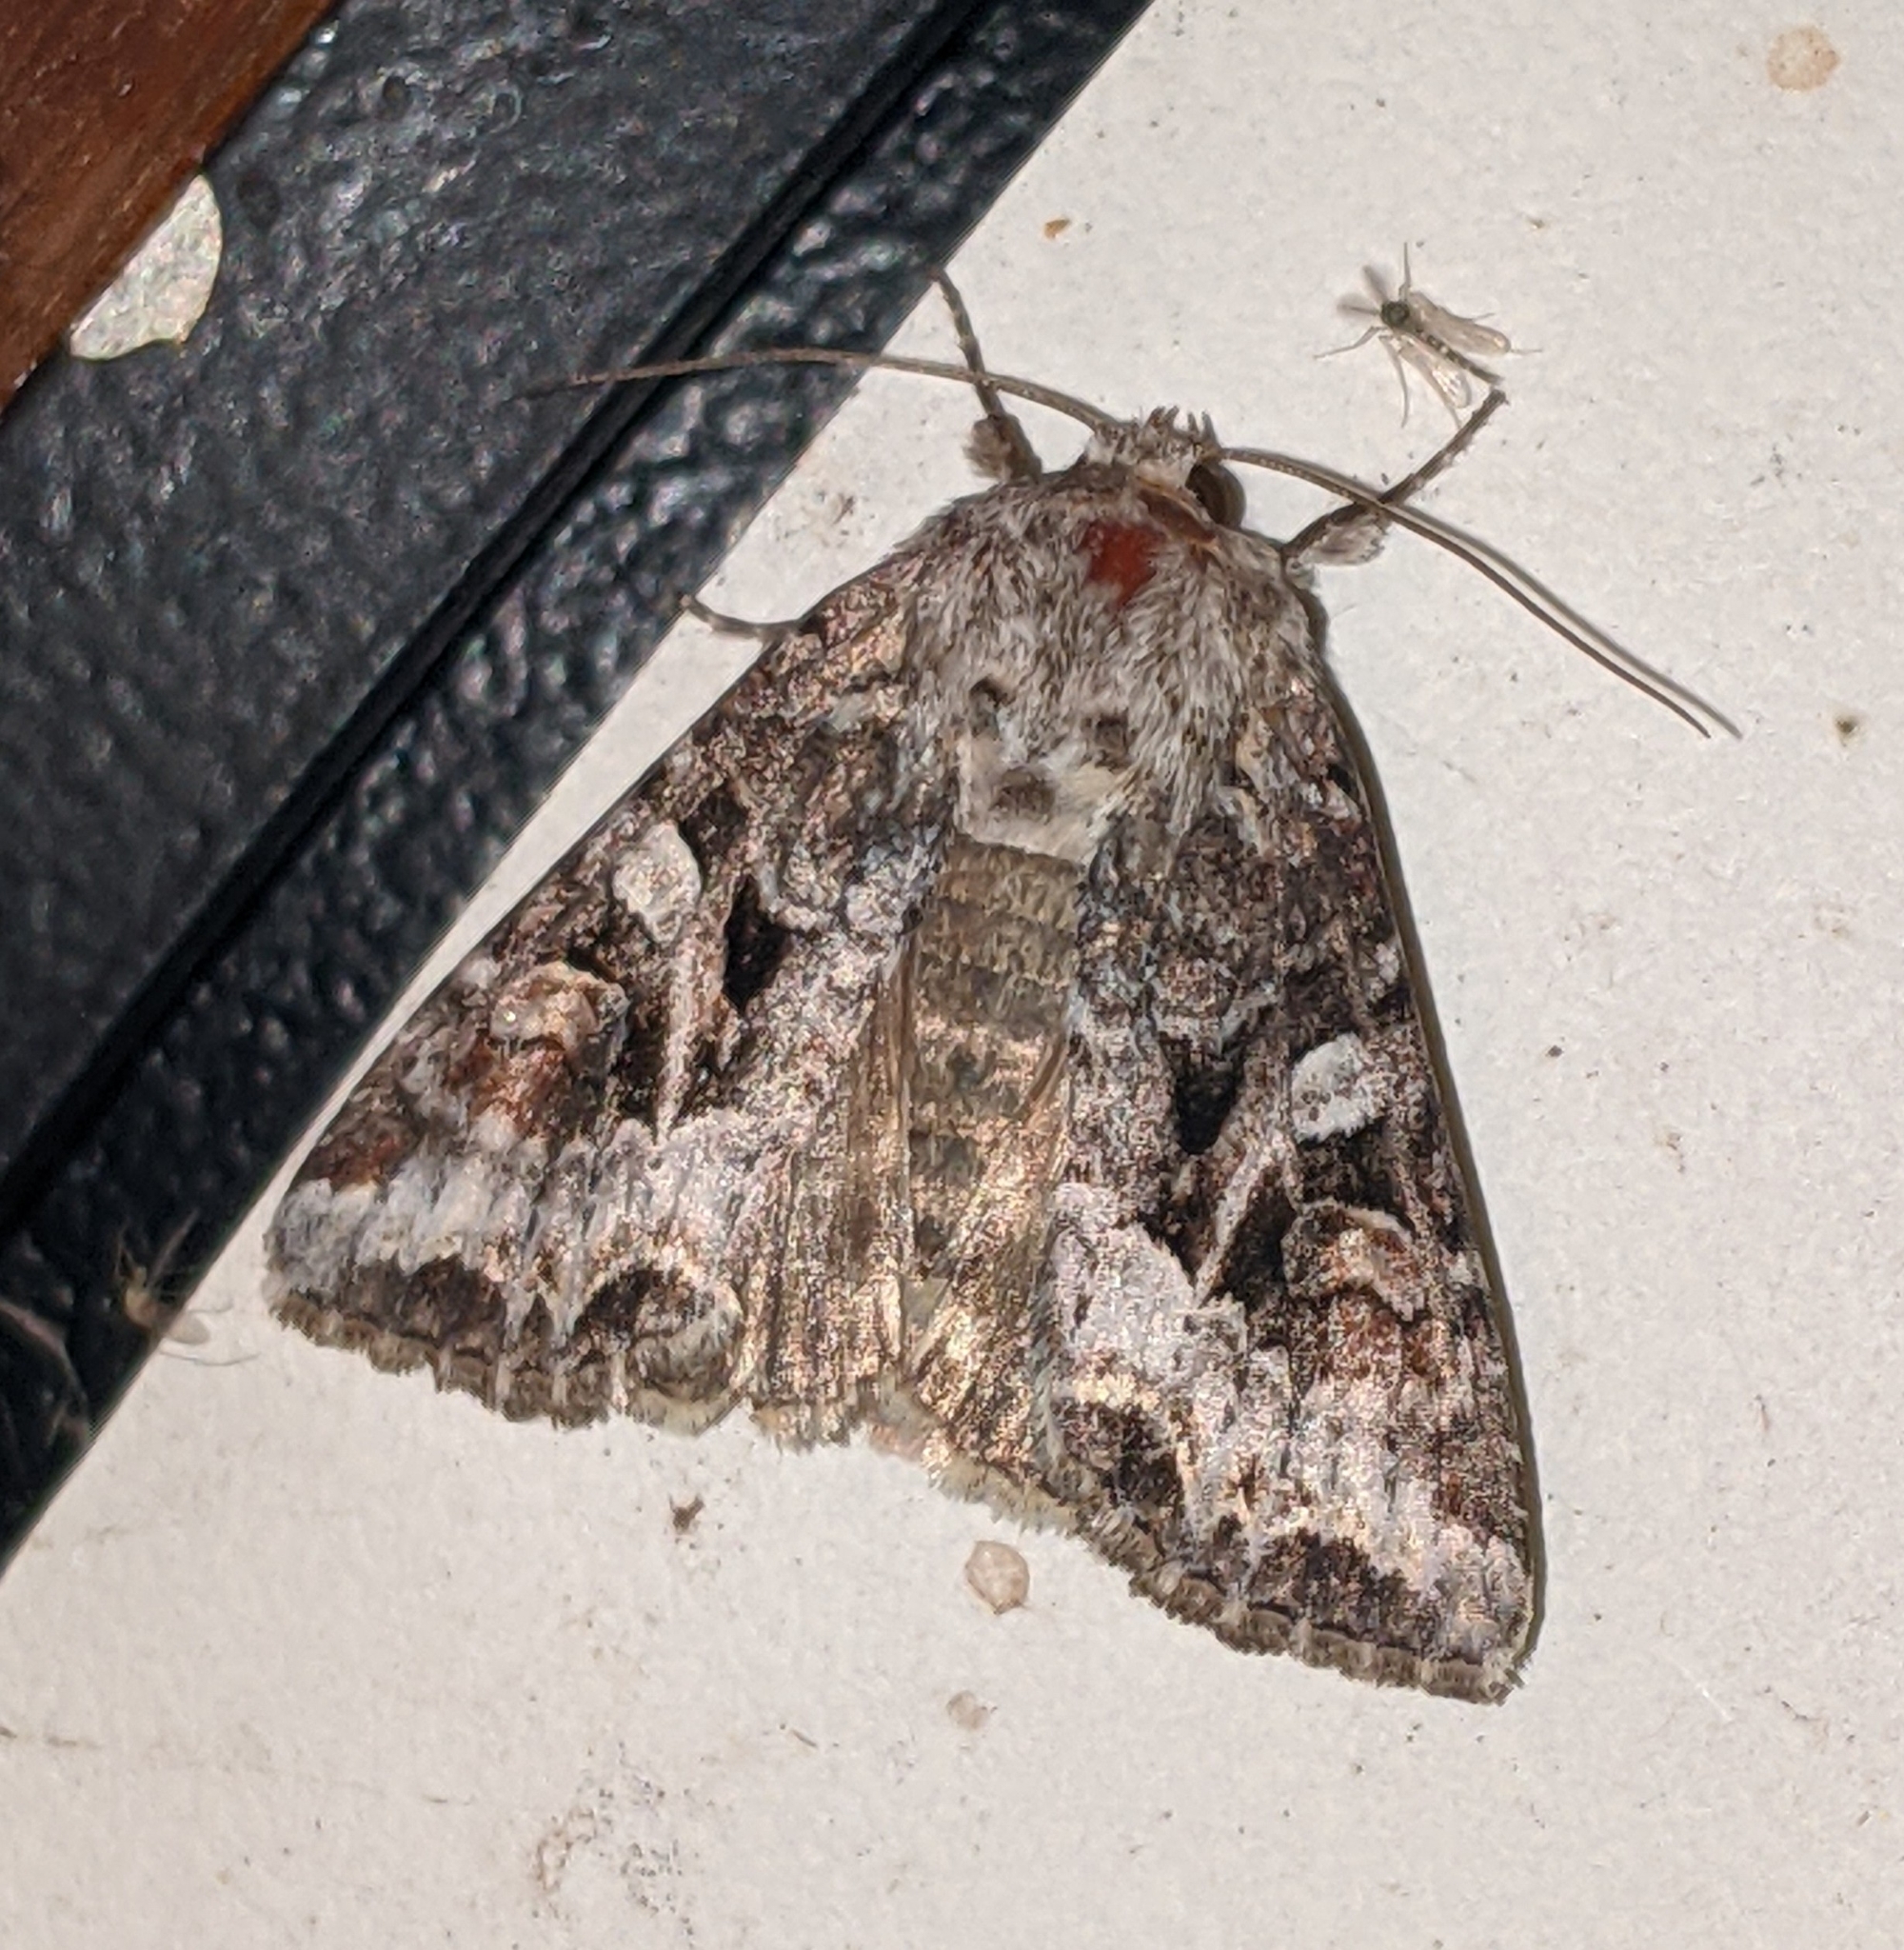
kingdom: Animalia
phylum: Arthropoda
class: Insecta
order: Lepidoptera
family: Noctuidae
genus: Trichordestra
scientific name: Trichordestra liquida
